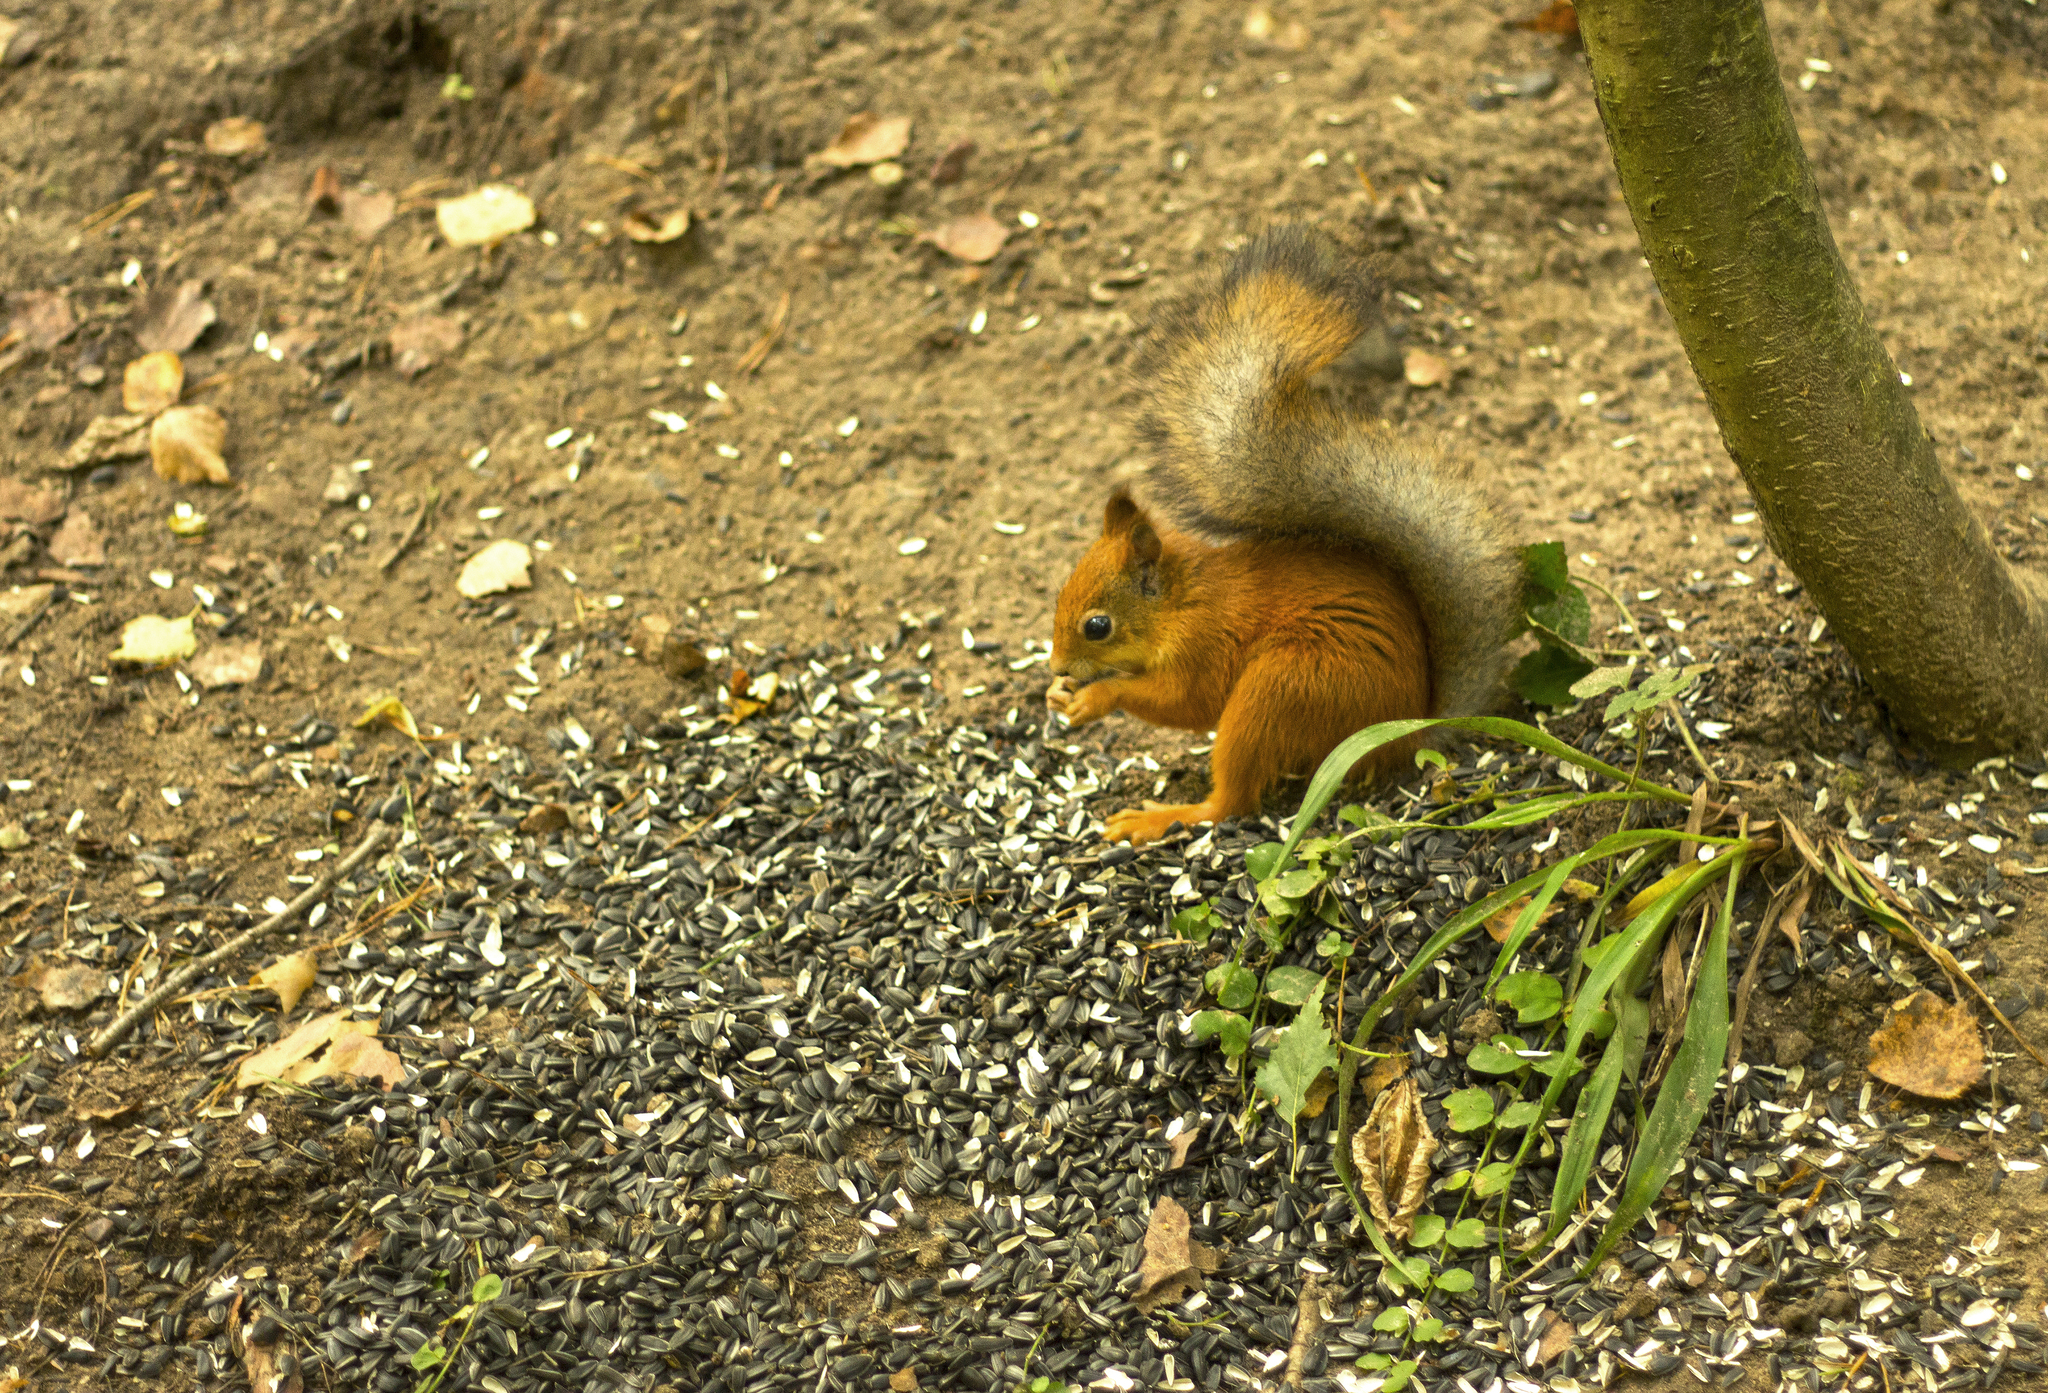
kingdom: Animalia
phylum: Chordata
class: Mammalia
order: Rodentia
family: Sciuridae
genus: Sciurus
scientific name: Sciurus vulgaris
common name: Eurasian red squirrel
